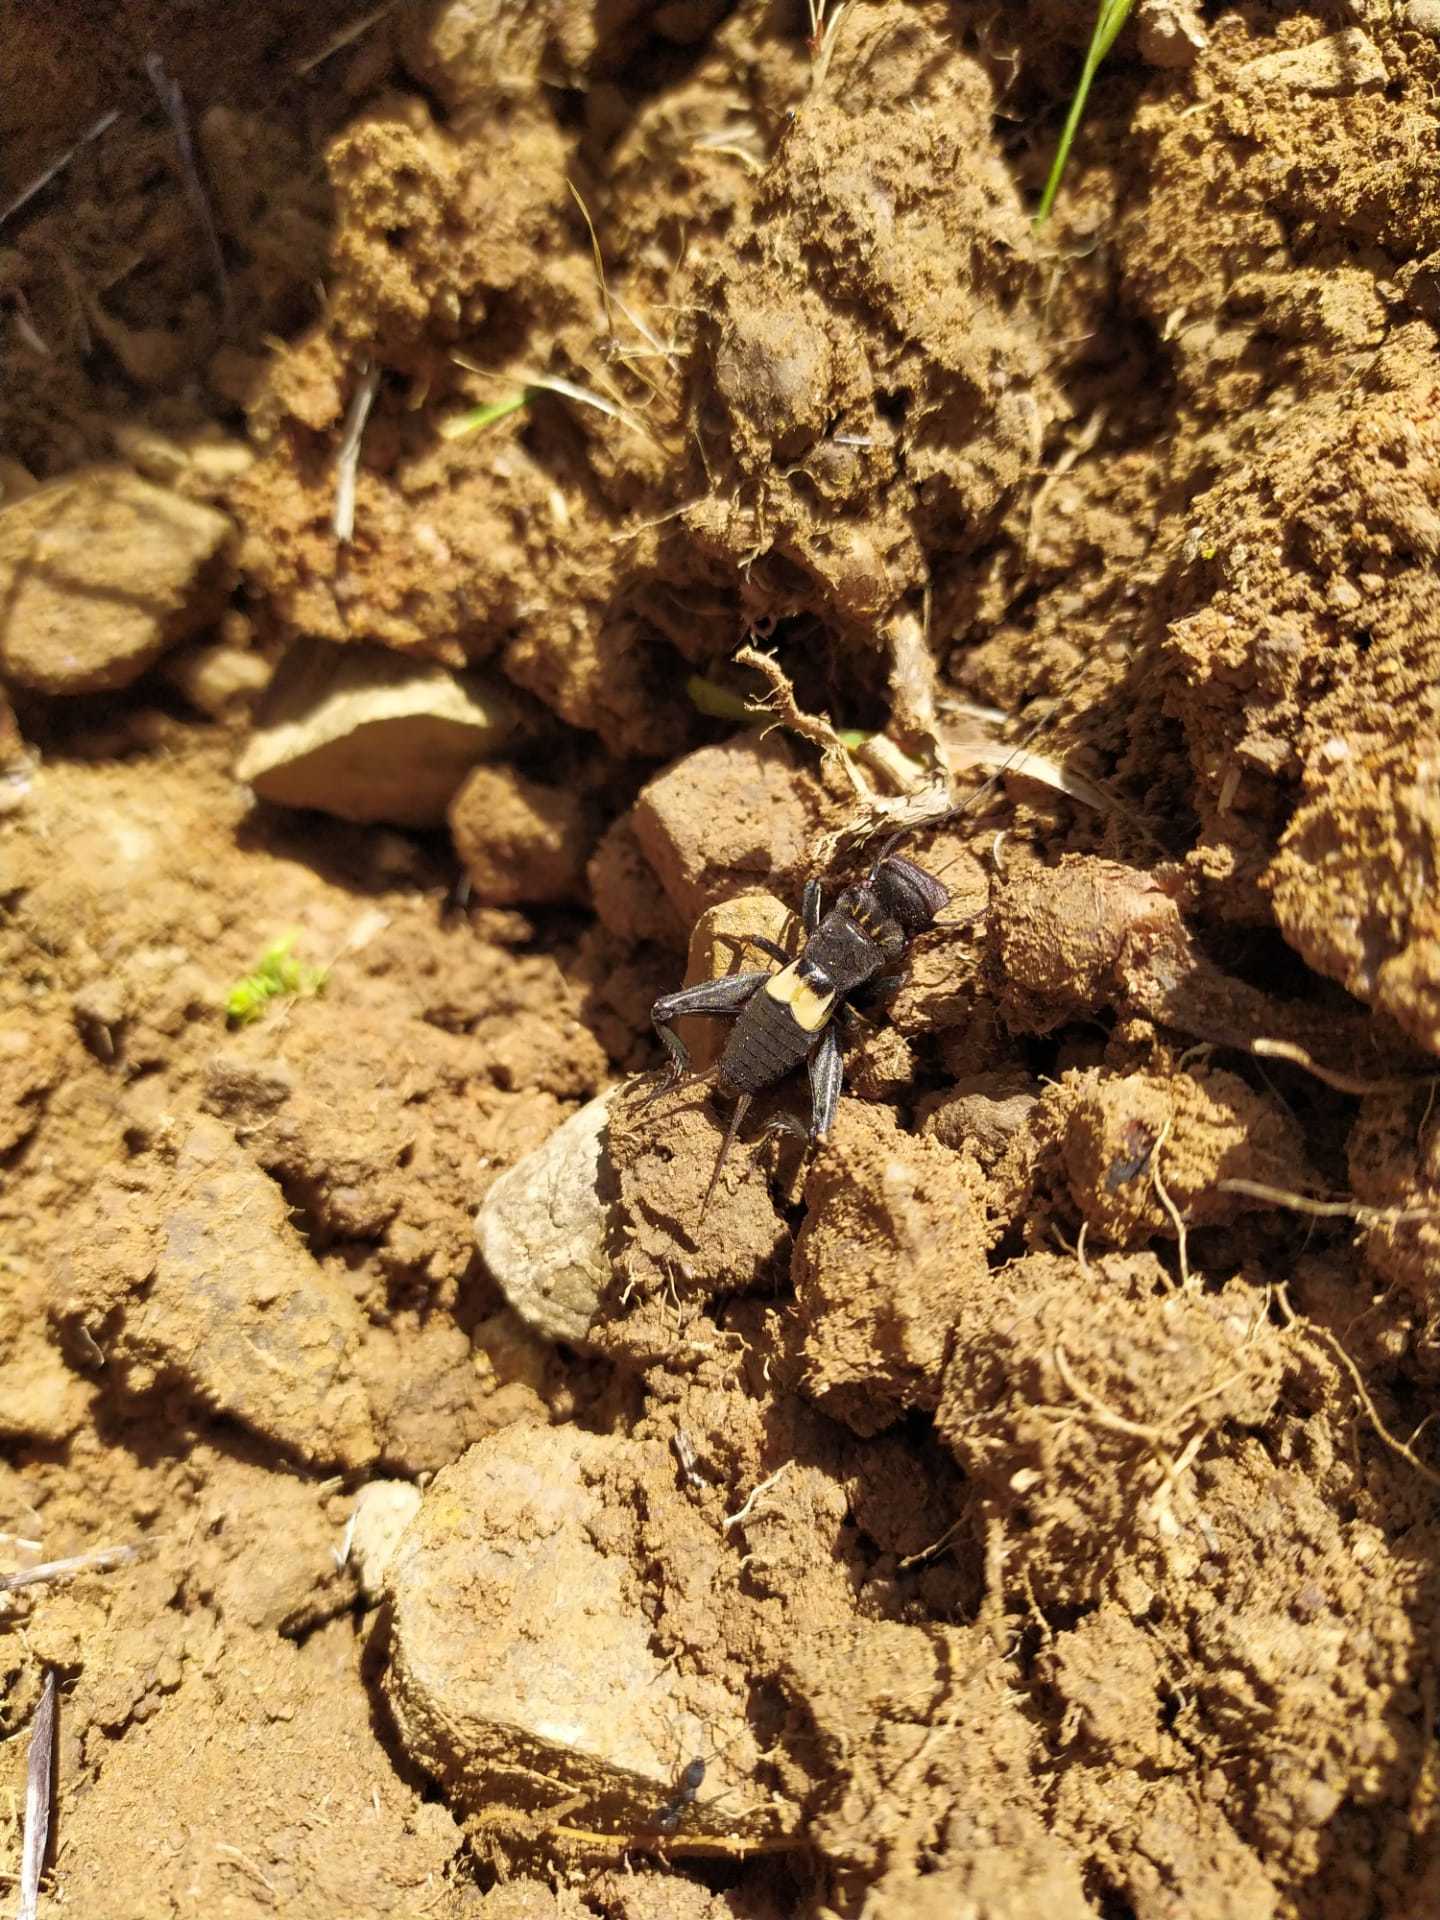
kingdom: Animalia
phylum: Arthropoda
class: Insecta
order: Orthoptera
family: Gryllidae
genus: Sciobia
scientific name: Sciobia lusitanica
